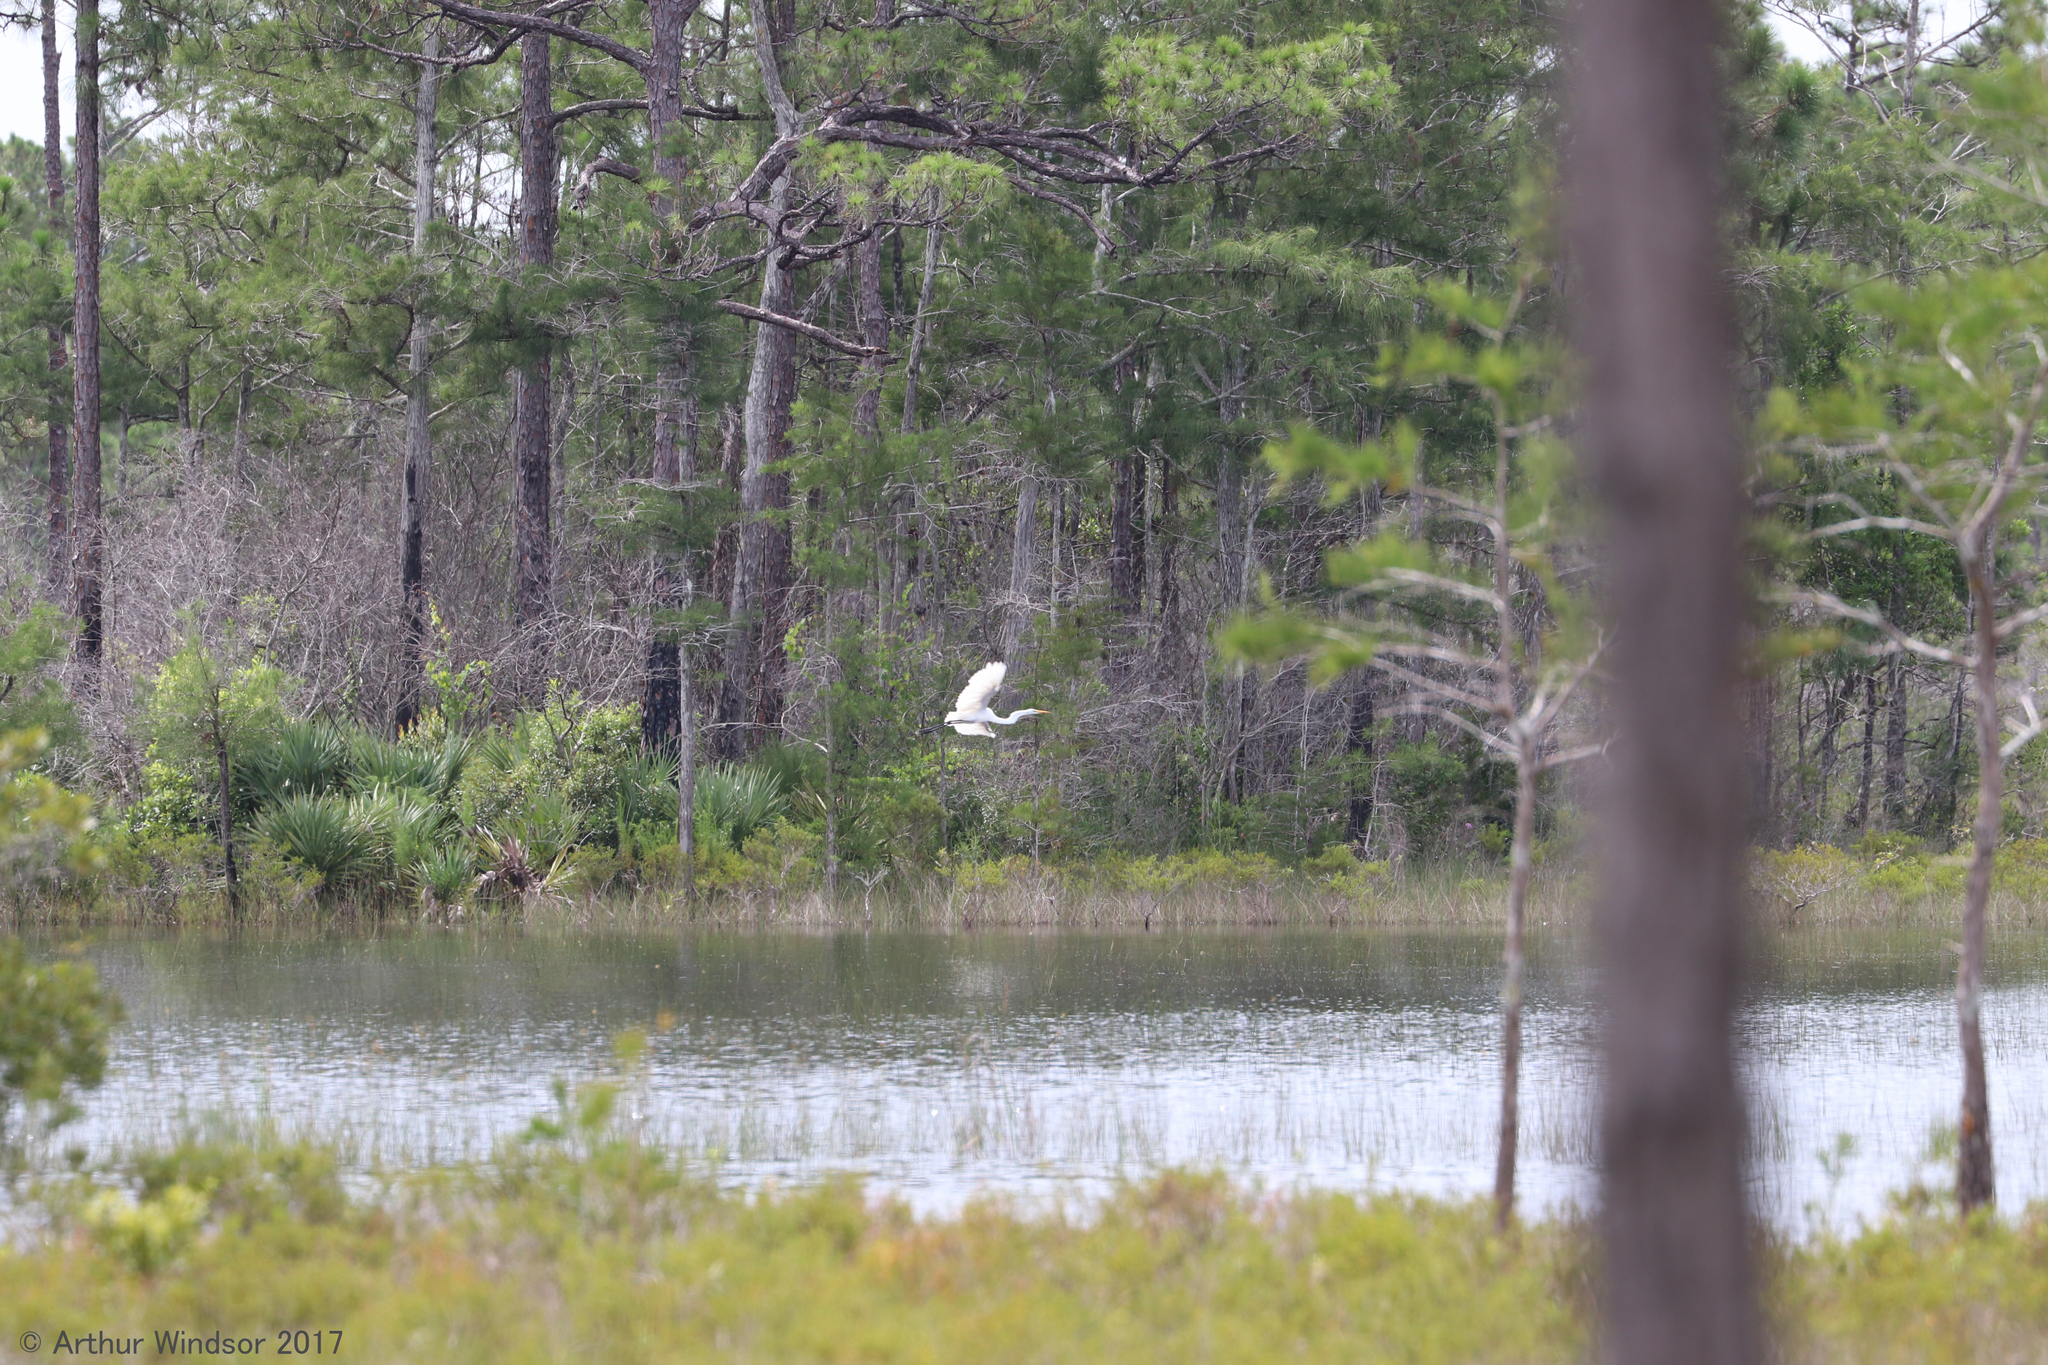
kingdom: Animalia
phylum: Chordata
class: Aves
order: Pelecaniformes
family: Ardeidae
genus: Ardea
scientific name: Ardea alba
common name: Great egret
